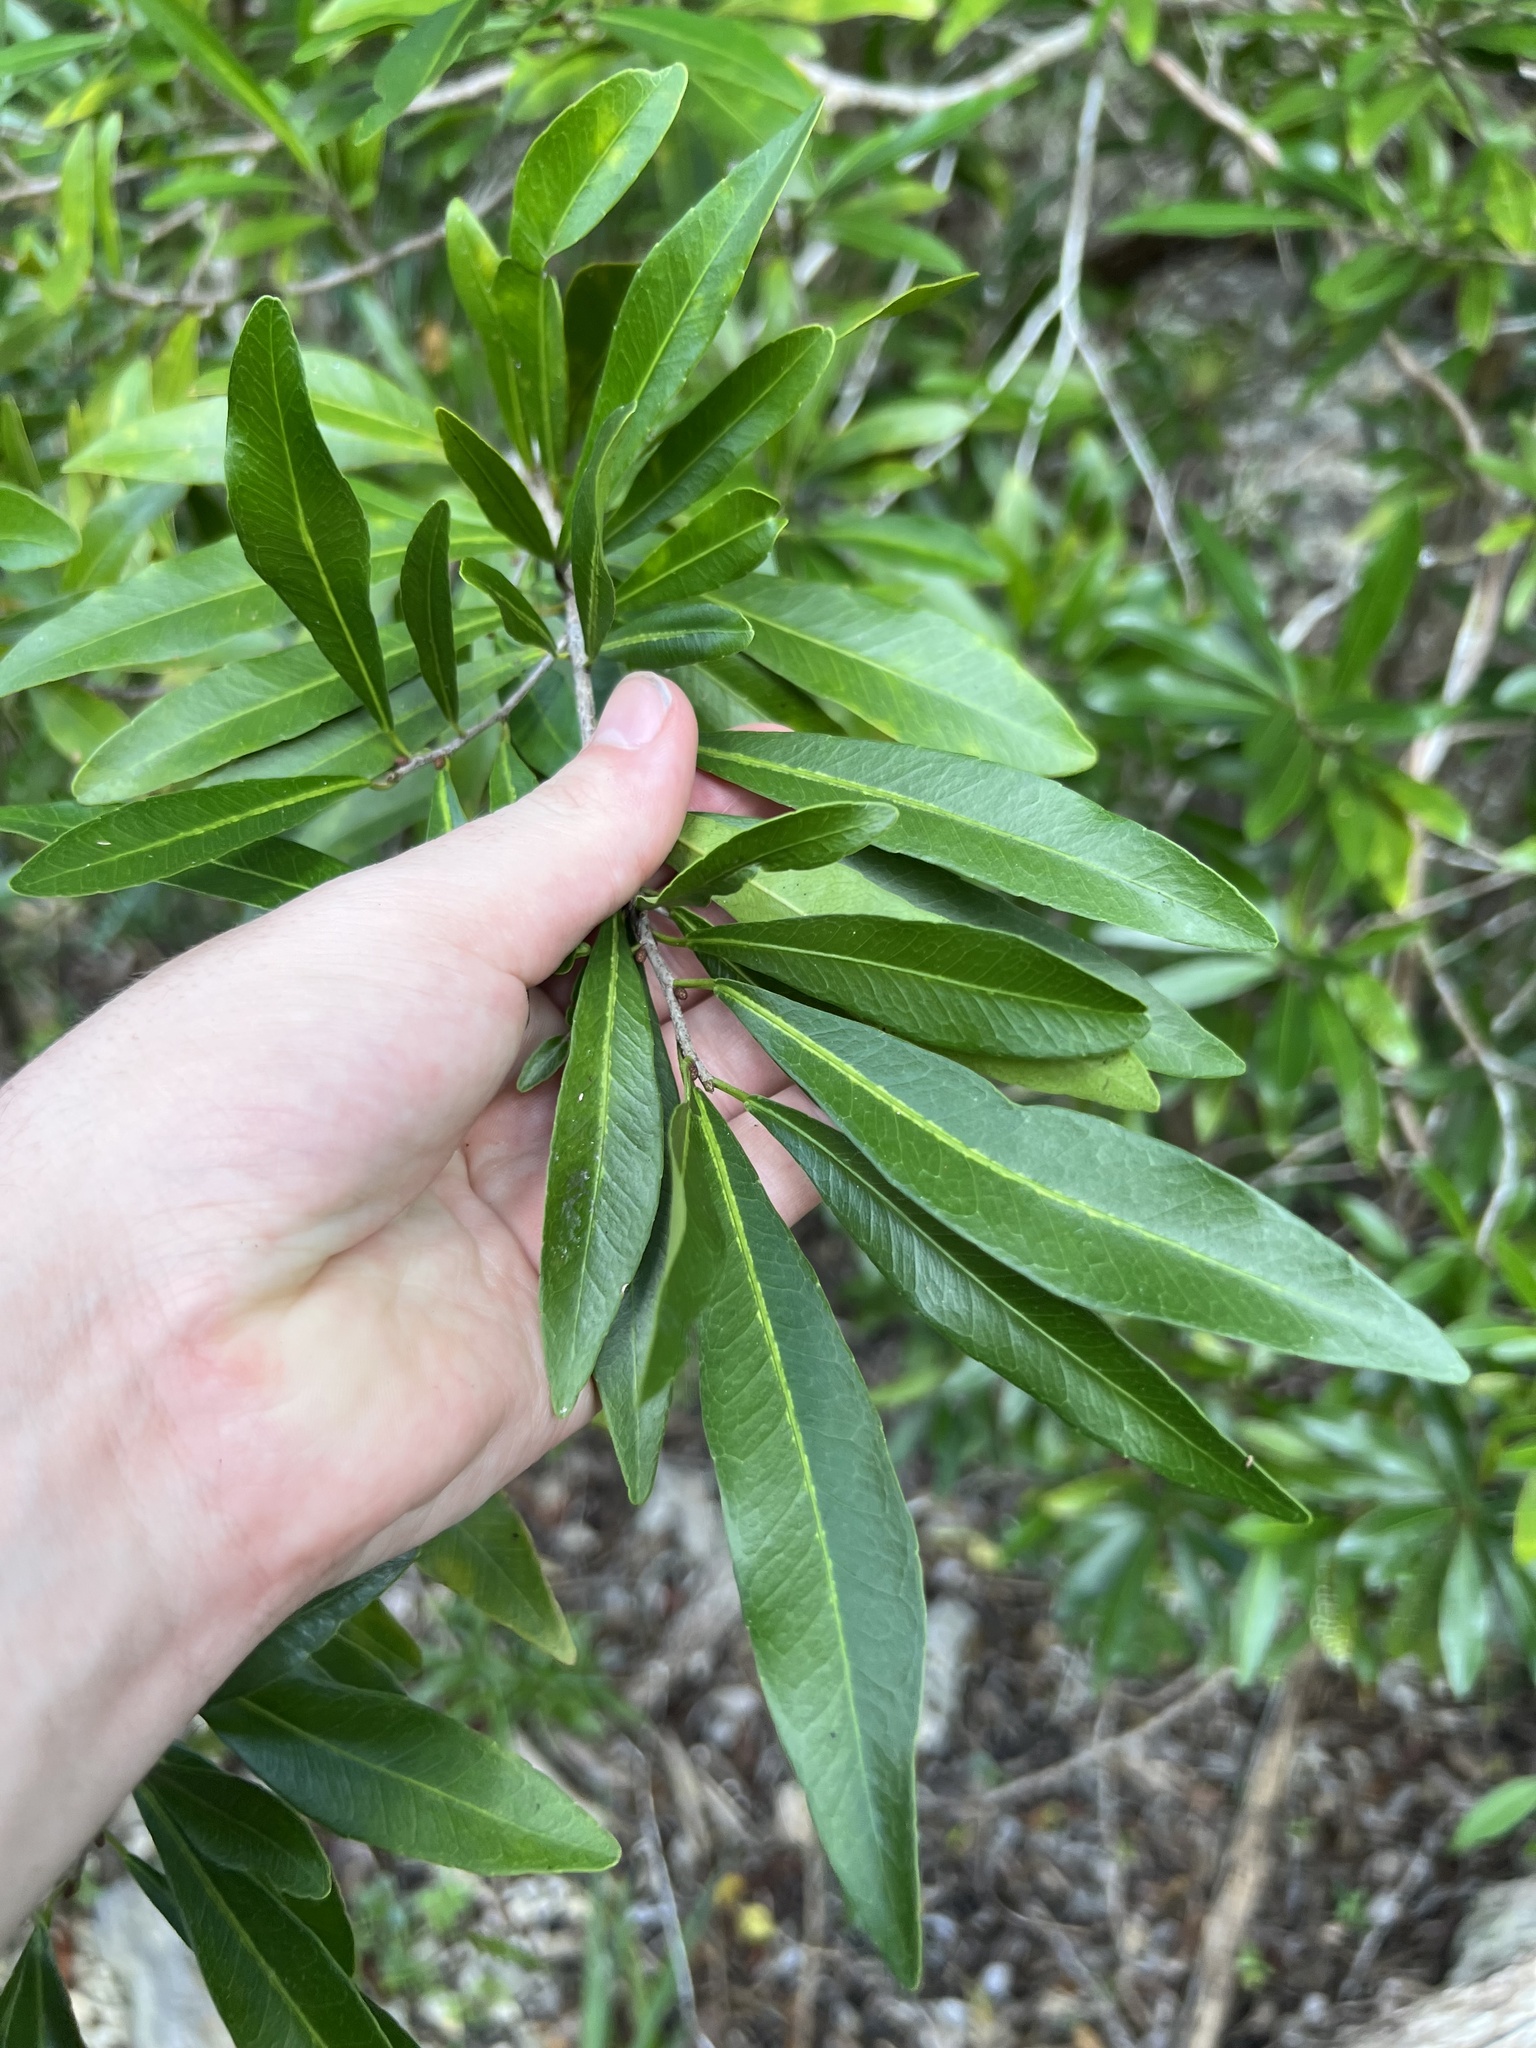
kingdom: Plantae
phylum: Tracheophyta
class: Magnoliopsida
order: Malpighiales
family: Euphorbiaceae
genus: Gymnanthes
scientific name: Gymnanthes lucida
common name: Oysterwood
